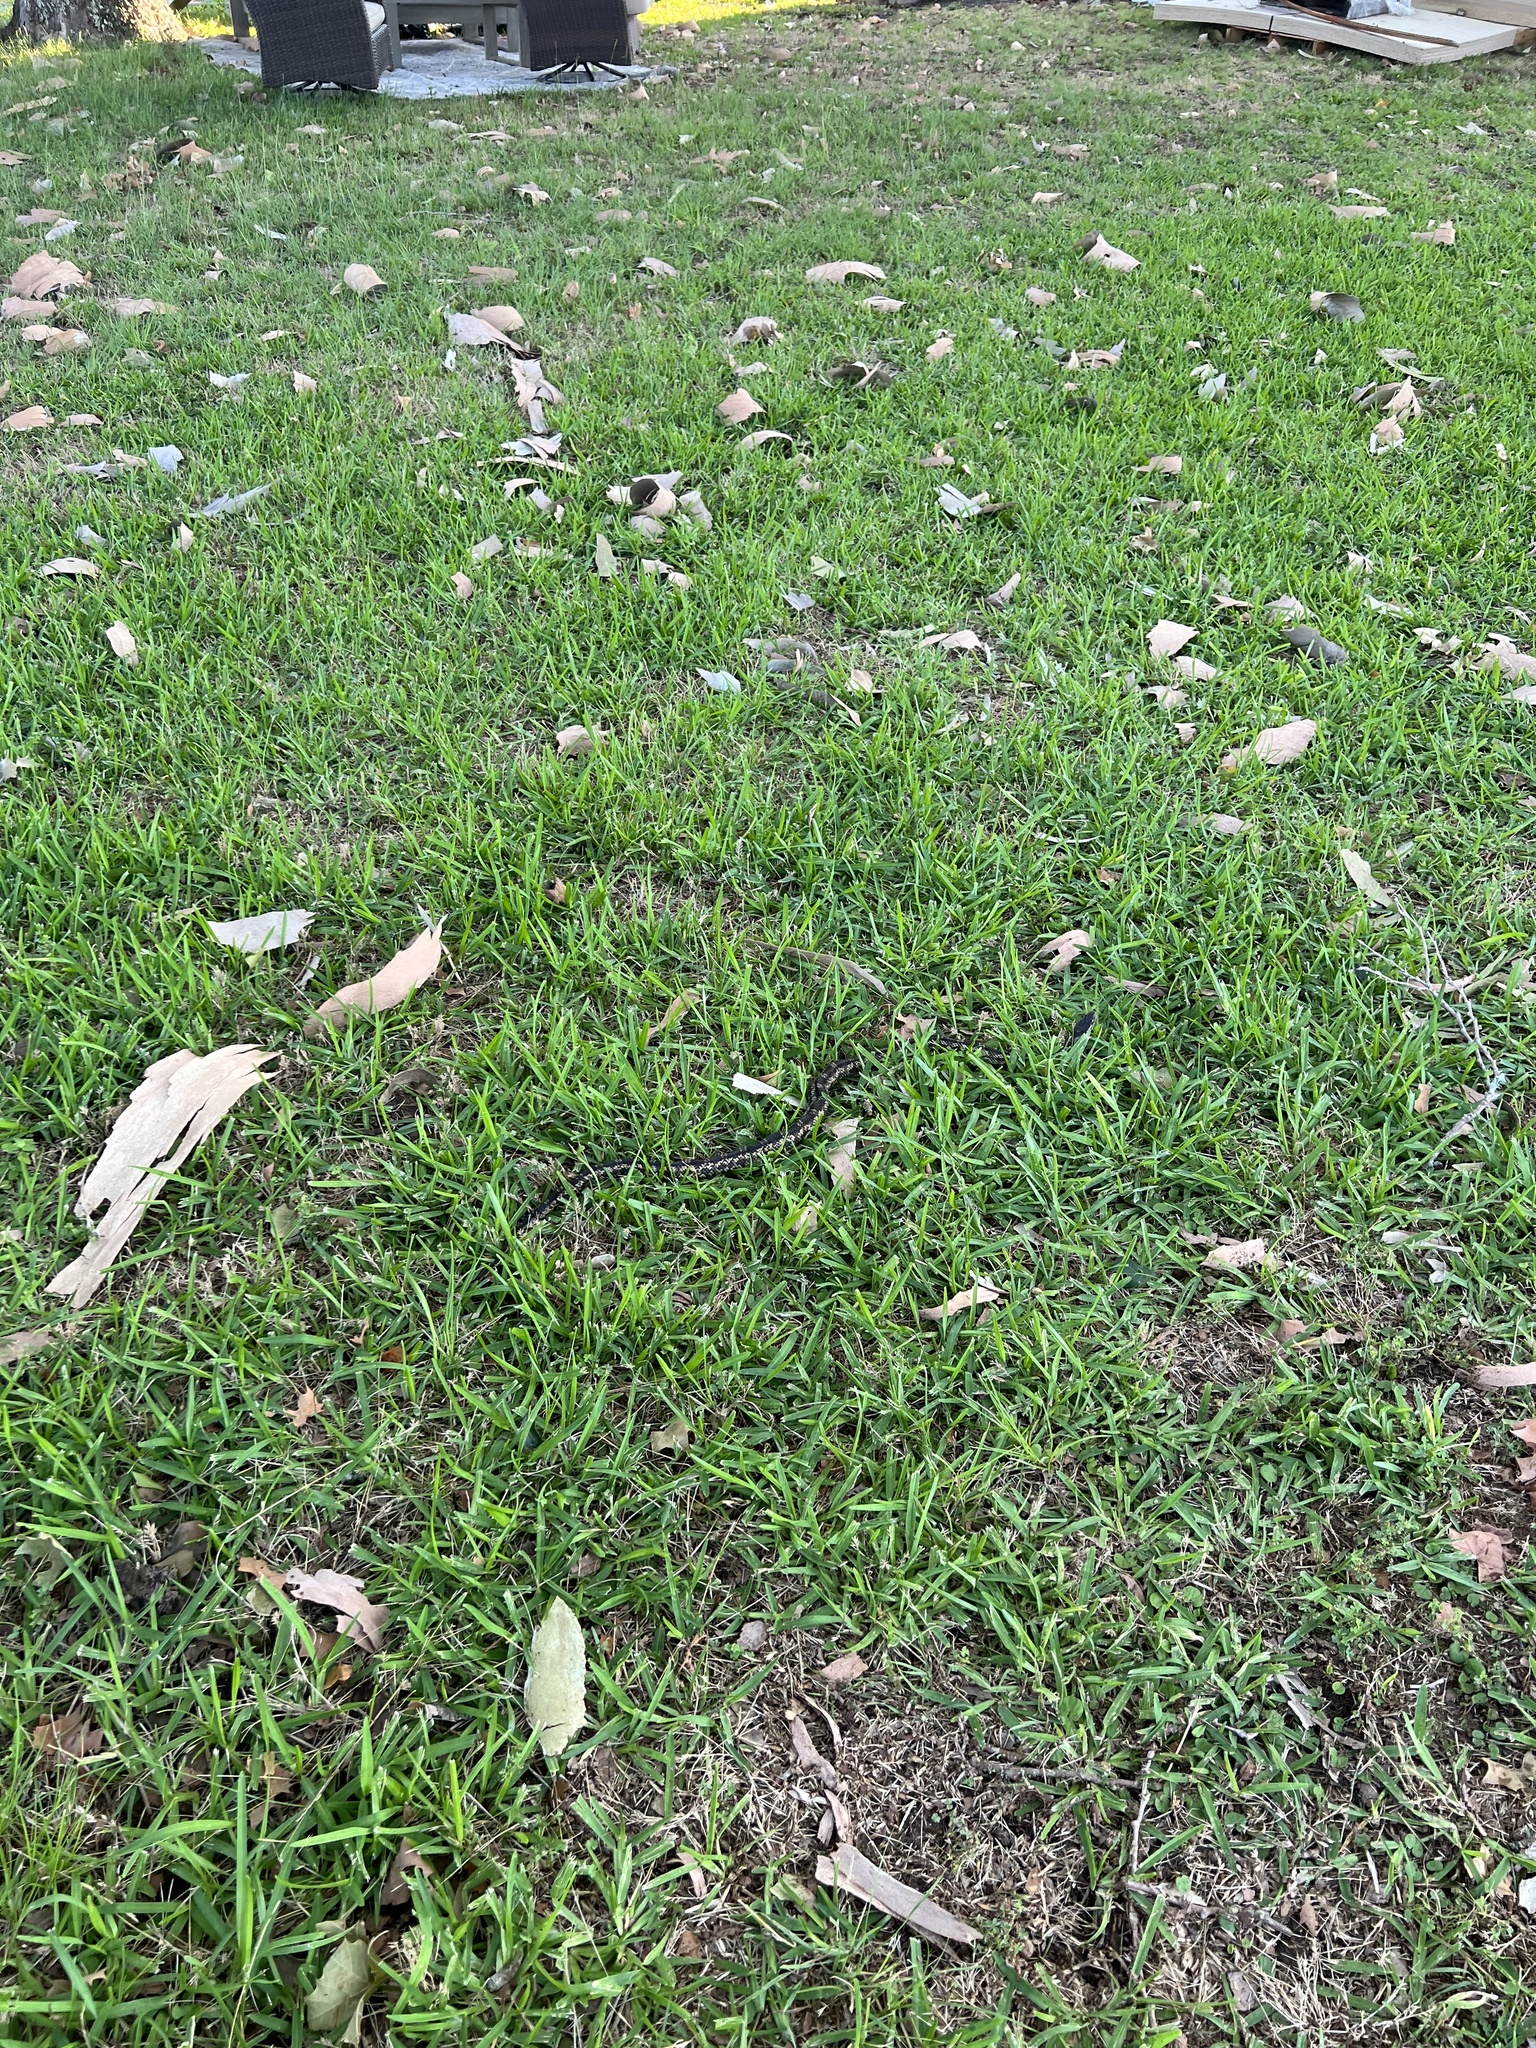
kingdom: Animalia
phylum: Chordata
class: Squamata
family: Colubridae
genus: Pantherophis
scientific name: Pantherophis obsoletus
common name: Black rat snake
